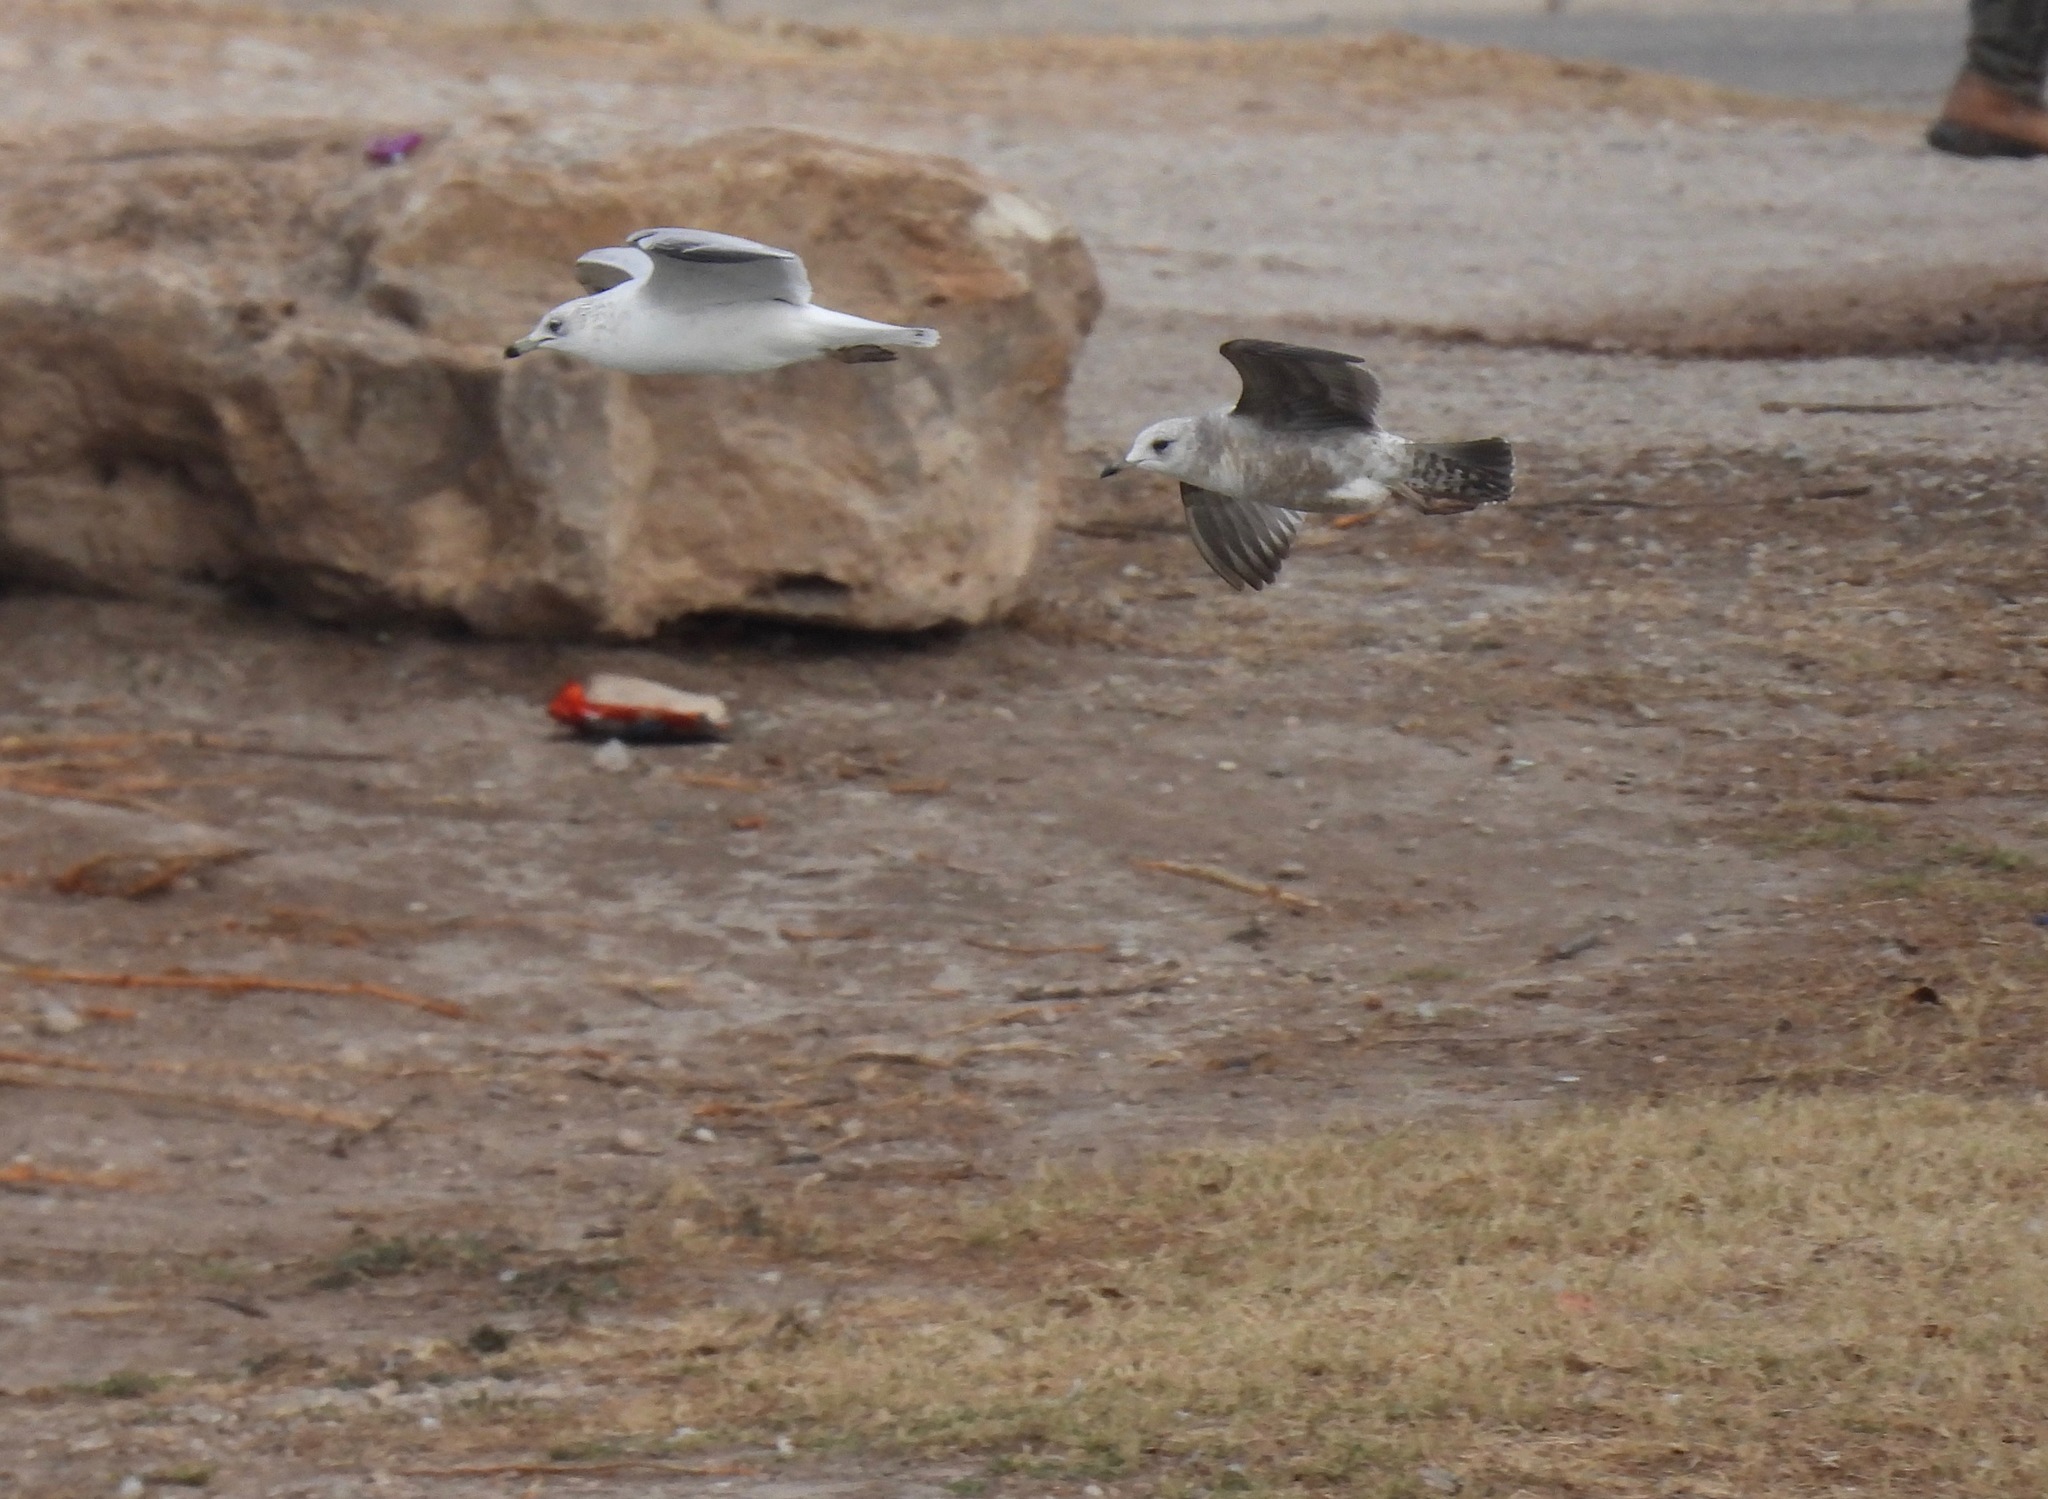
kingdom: Animalia
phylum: Chordata
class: Aves
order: Charadriiformes
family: Laridae
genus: Larus
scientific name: Larus brachyrhynchus
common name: Short-billed gull
